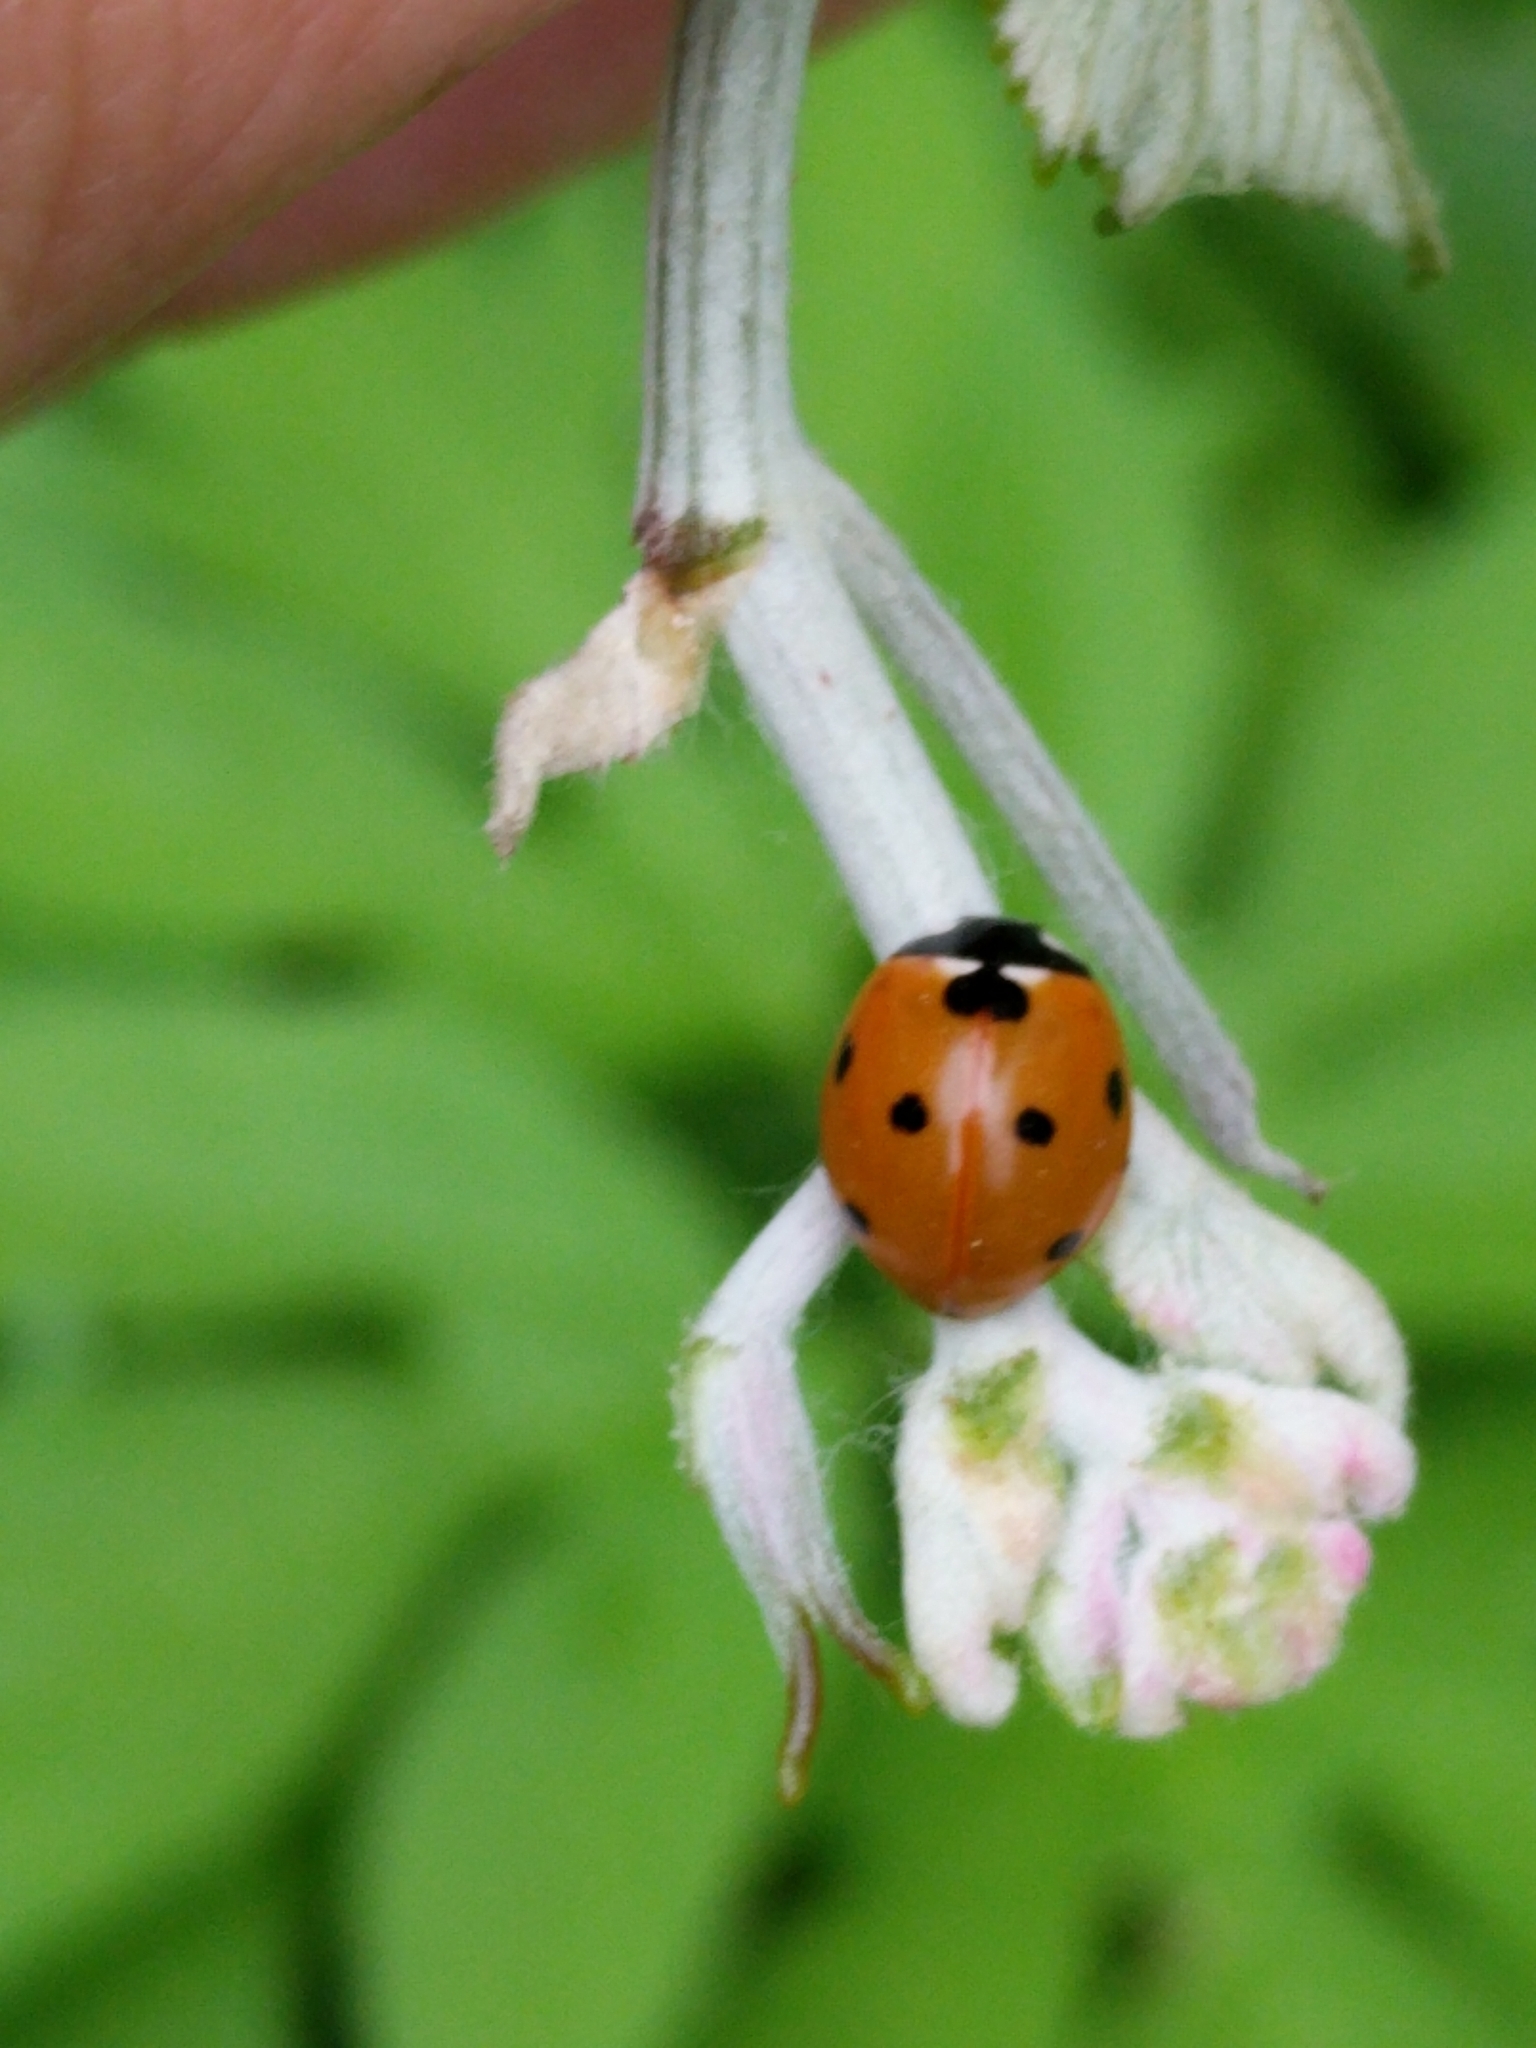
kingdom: Animalia
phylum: Arthropoda
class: Insecta
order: Coleoptera
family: Coccinellidae
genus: Coccinella
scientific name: Coccinella septempunctata
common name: Sevenspotted lady beetle
